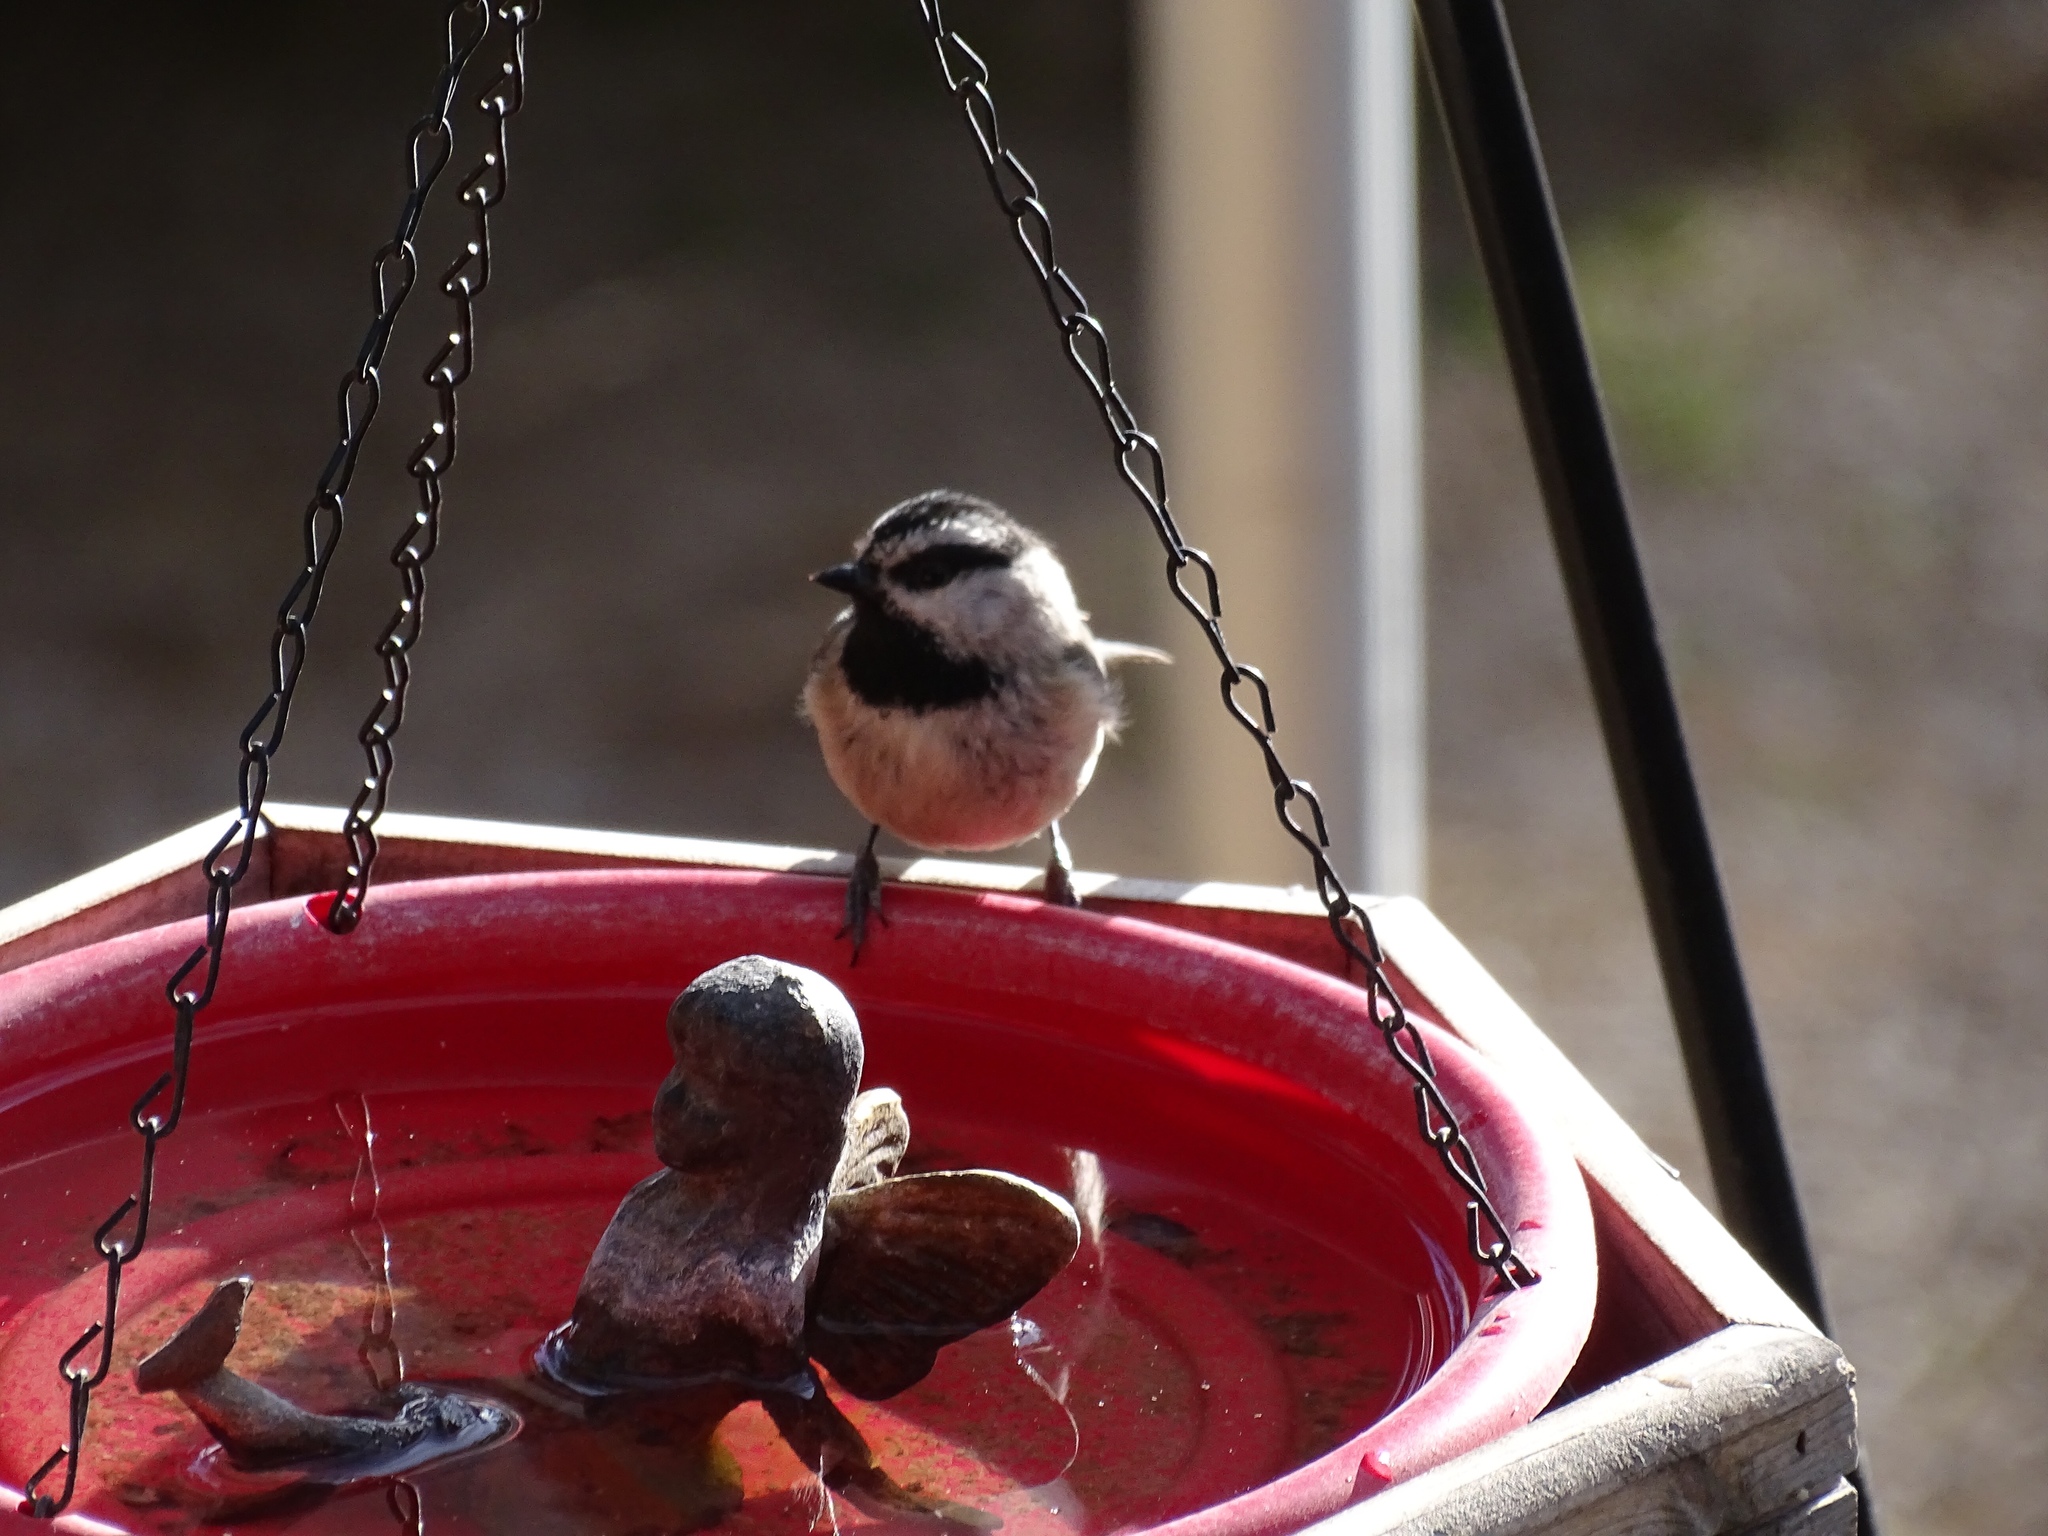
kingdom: Animalia
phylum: Chordata
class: Aves
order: Passeriformes
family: Paridae
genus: Poecile
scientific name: Poecile gambeli
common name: Mountain chickadee
